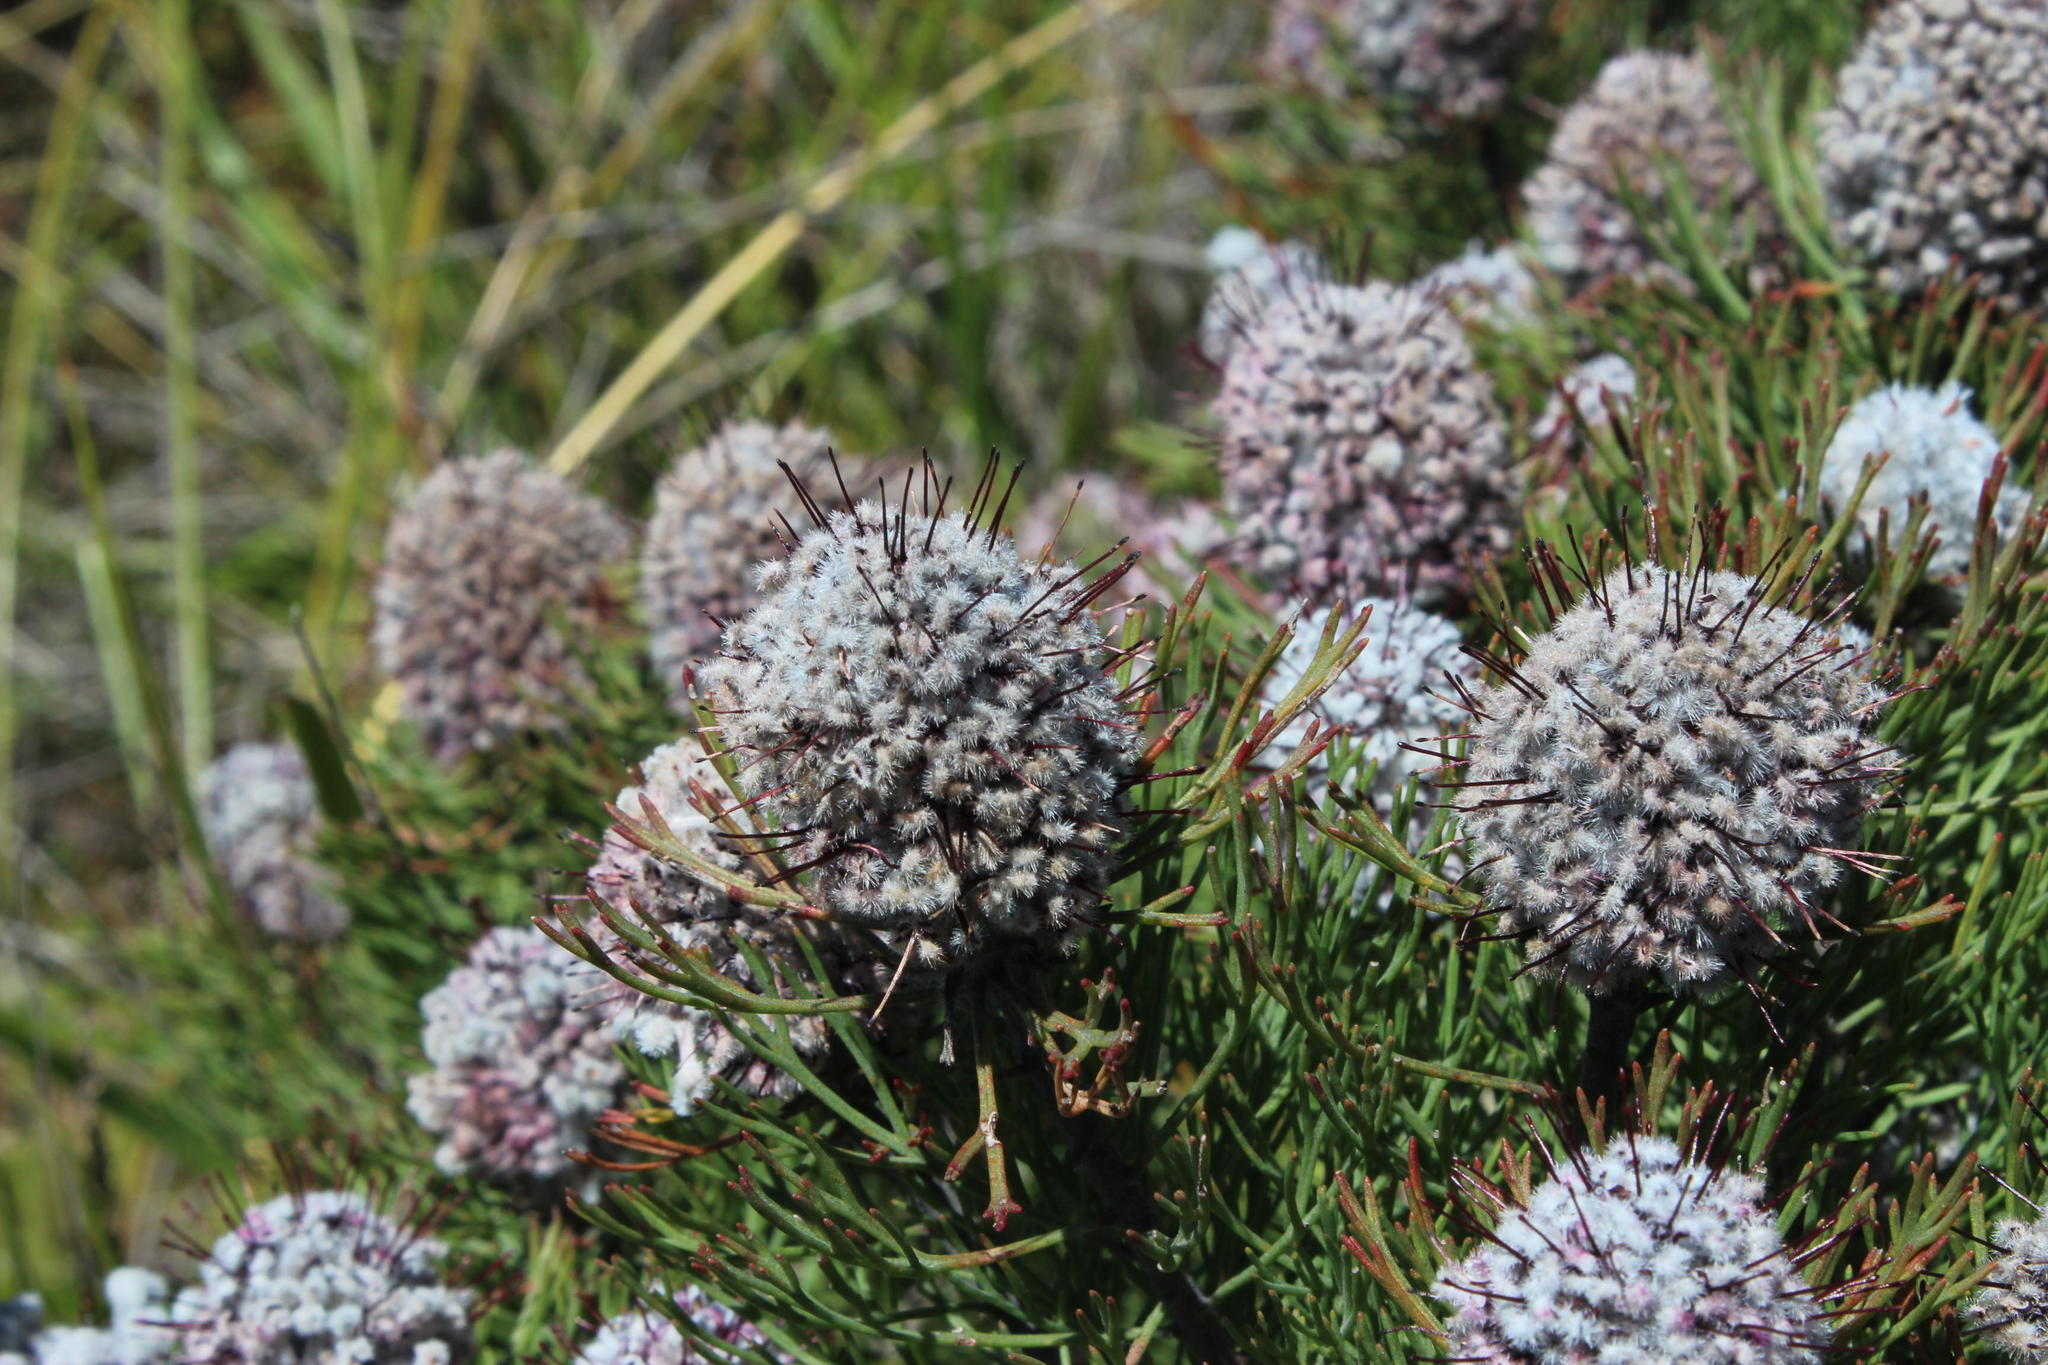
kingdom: Plantae
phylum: Tracheophyta
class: Magnoliopsida
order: Proteales
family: Proteaceae
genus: Paranomus
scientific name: Paranomus
